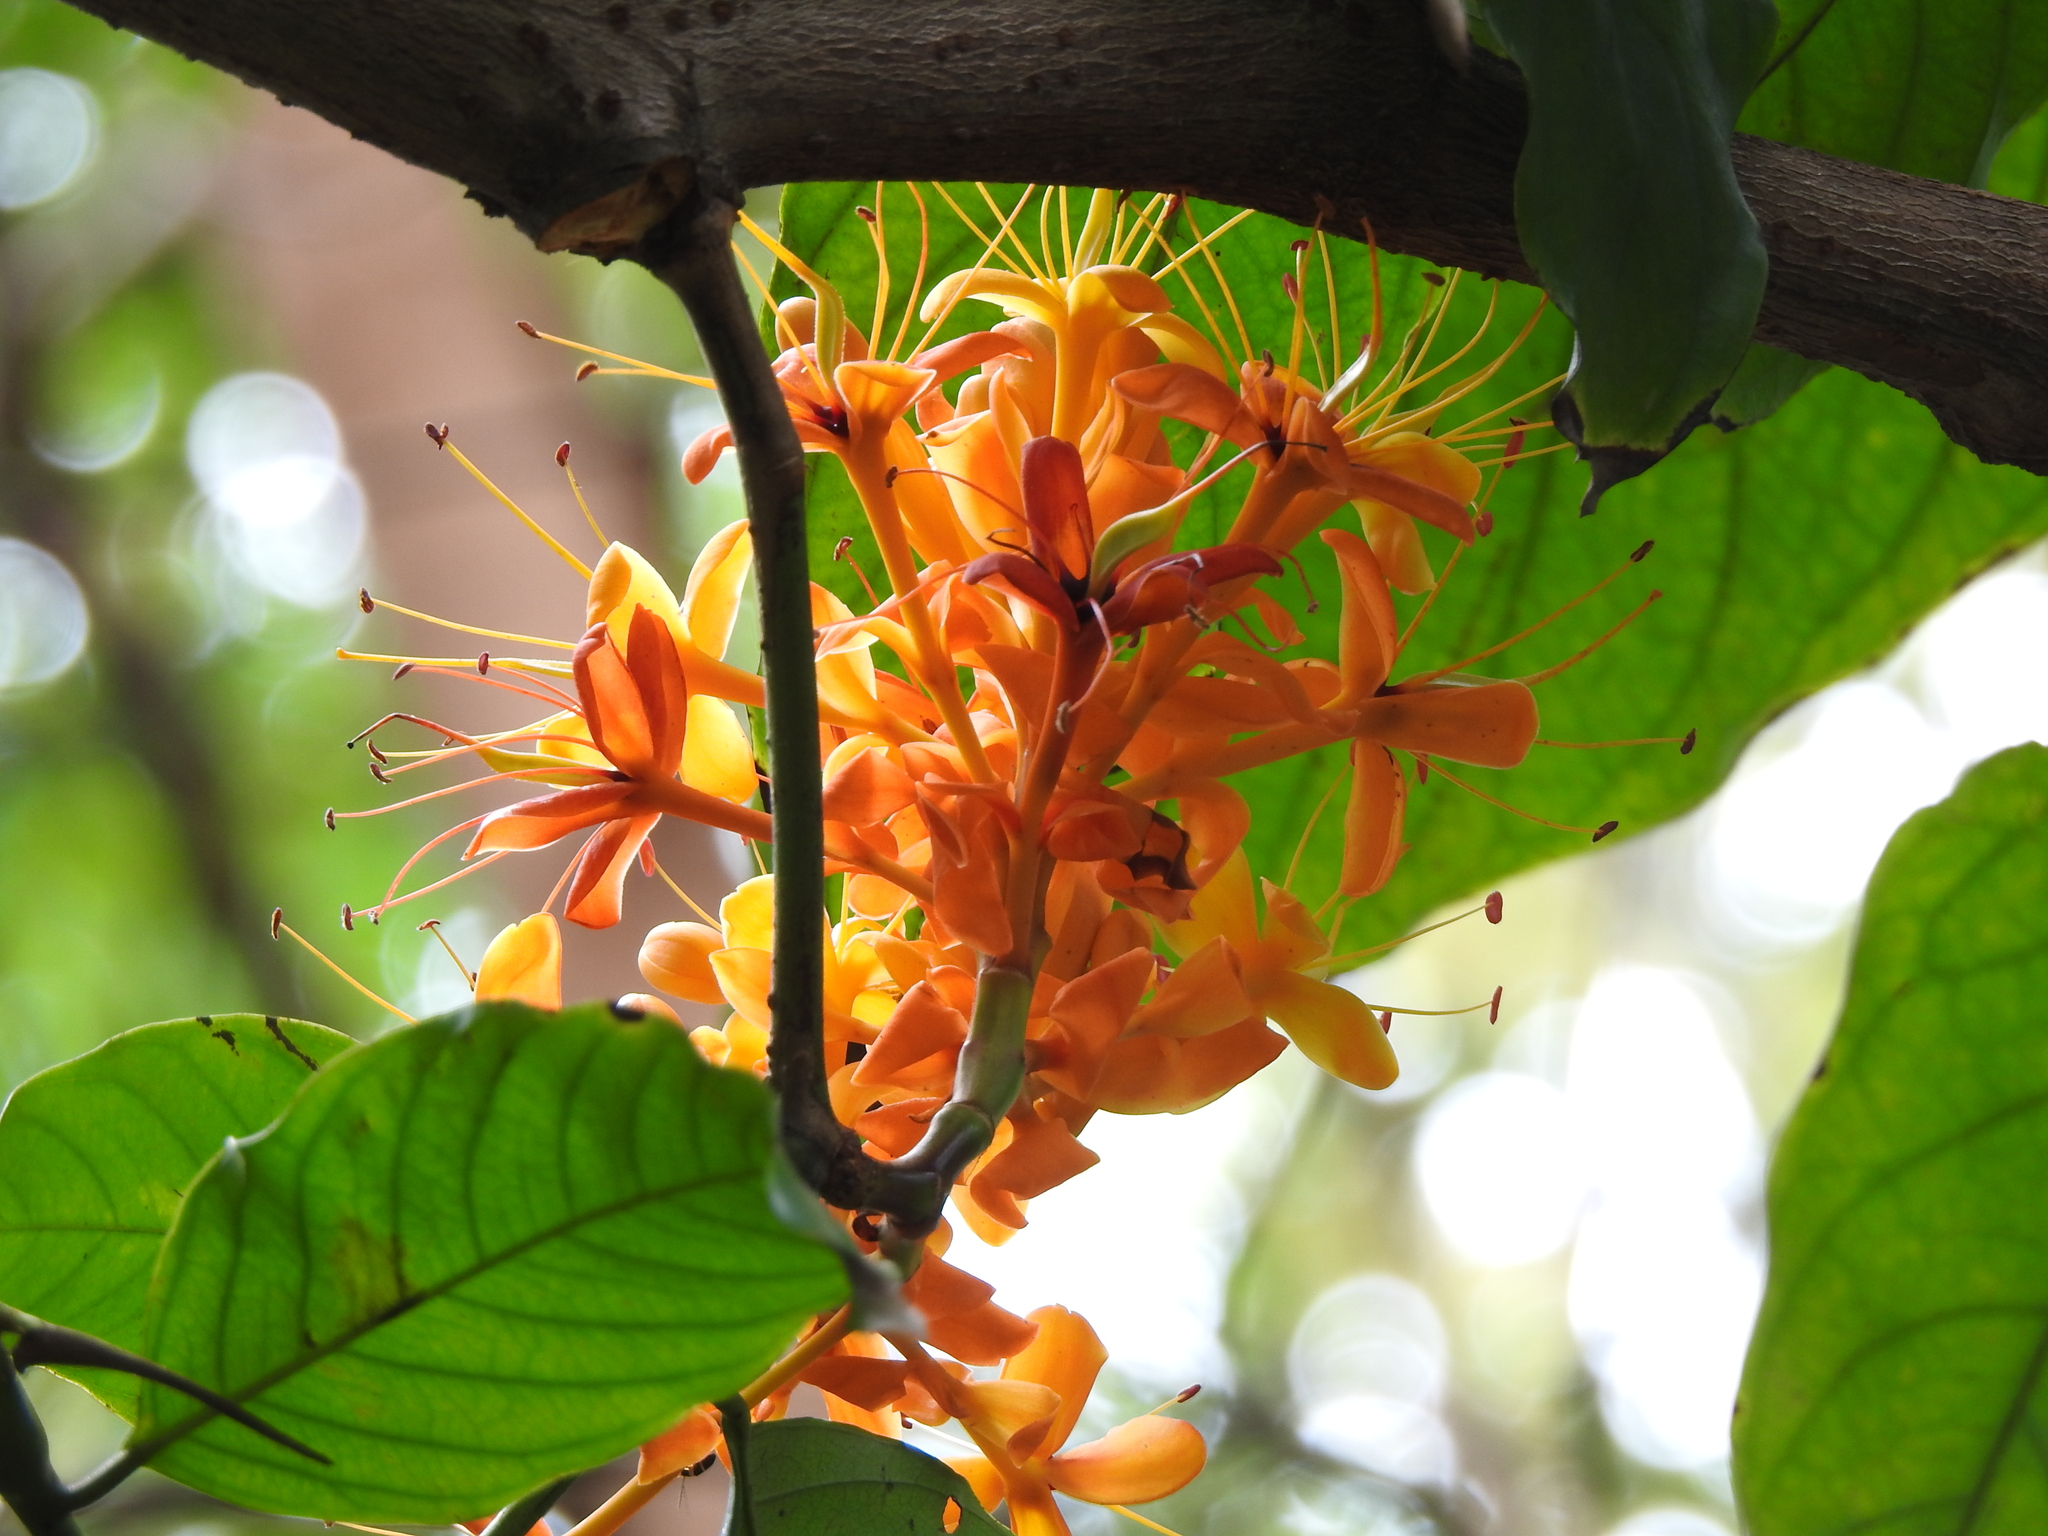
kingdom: Plantae
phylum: Tracheophyta
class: Magnoliopsida
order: Fabales
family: Fabaceae
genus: Saraca
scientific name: Saraca indica
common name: Asoka-tree
